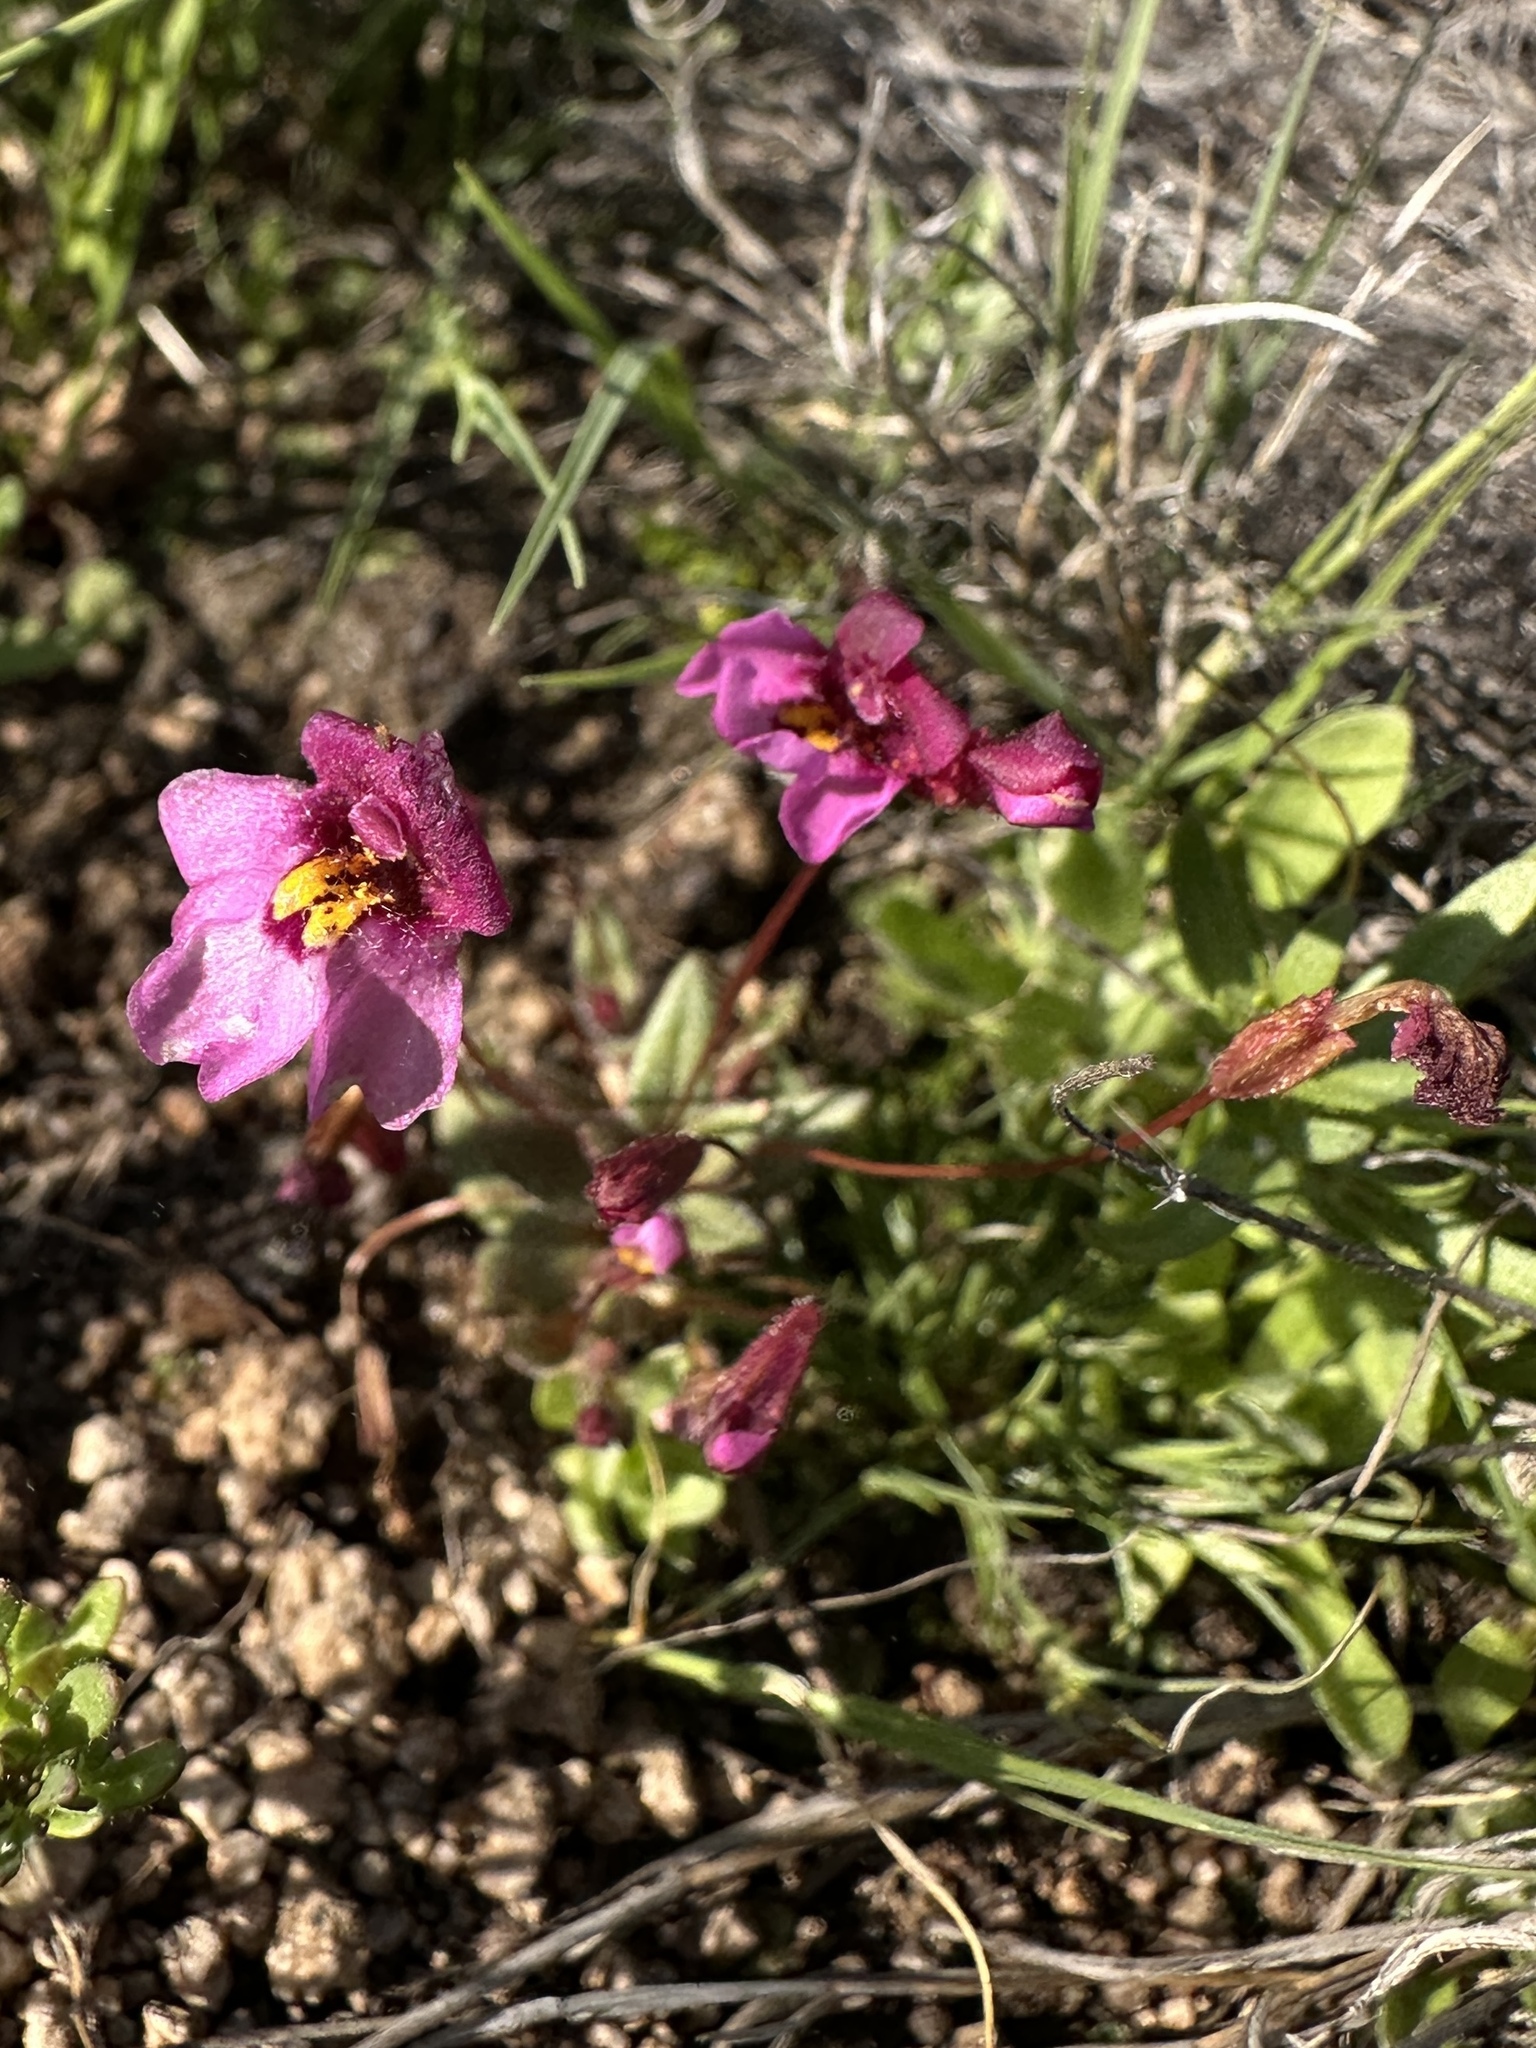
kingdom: Plantae
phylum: Tracheophyta
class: Magnoliopsida
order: Lamiales
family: Phrymaceae
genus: Erythranthe
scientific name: Erythranthe purpurea
